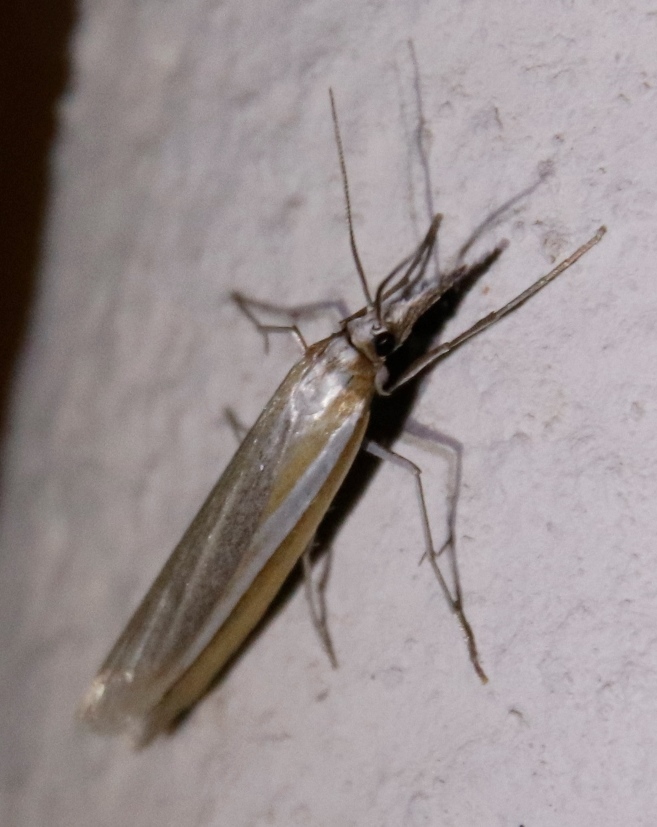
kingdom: Animalia
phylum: Arthropoda
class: Insecta
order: Lepidoptera
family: Crambidae
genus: Caffrocrambus
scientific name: Caffrocrambus chalcimerus
